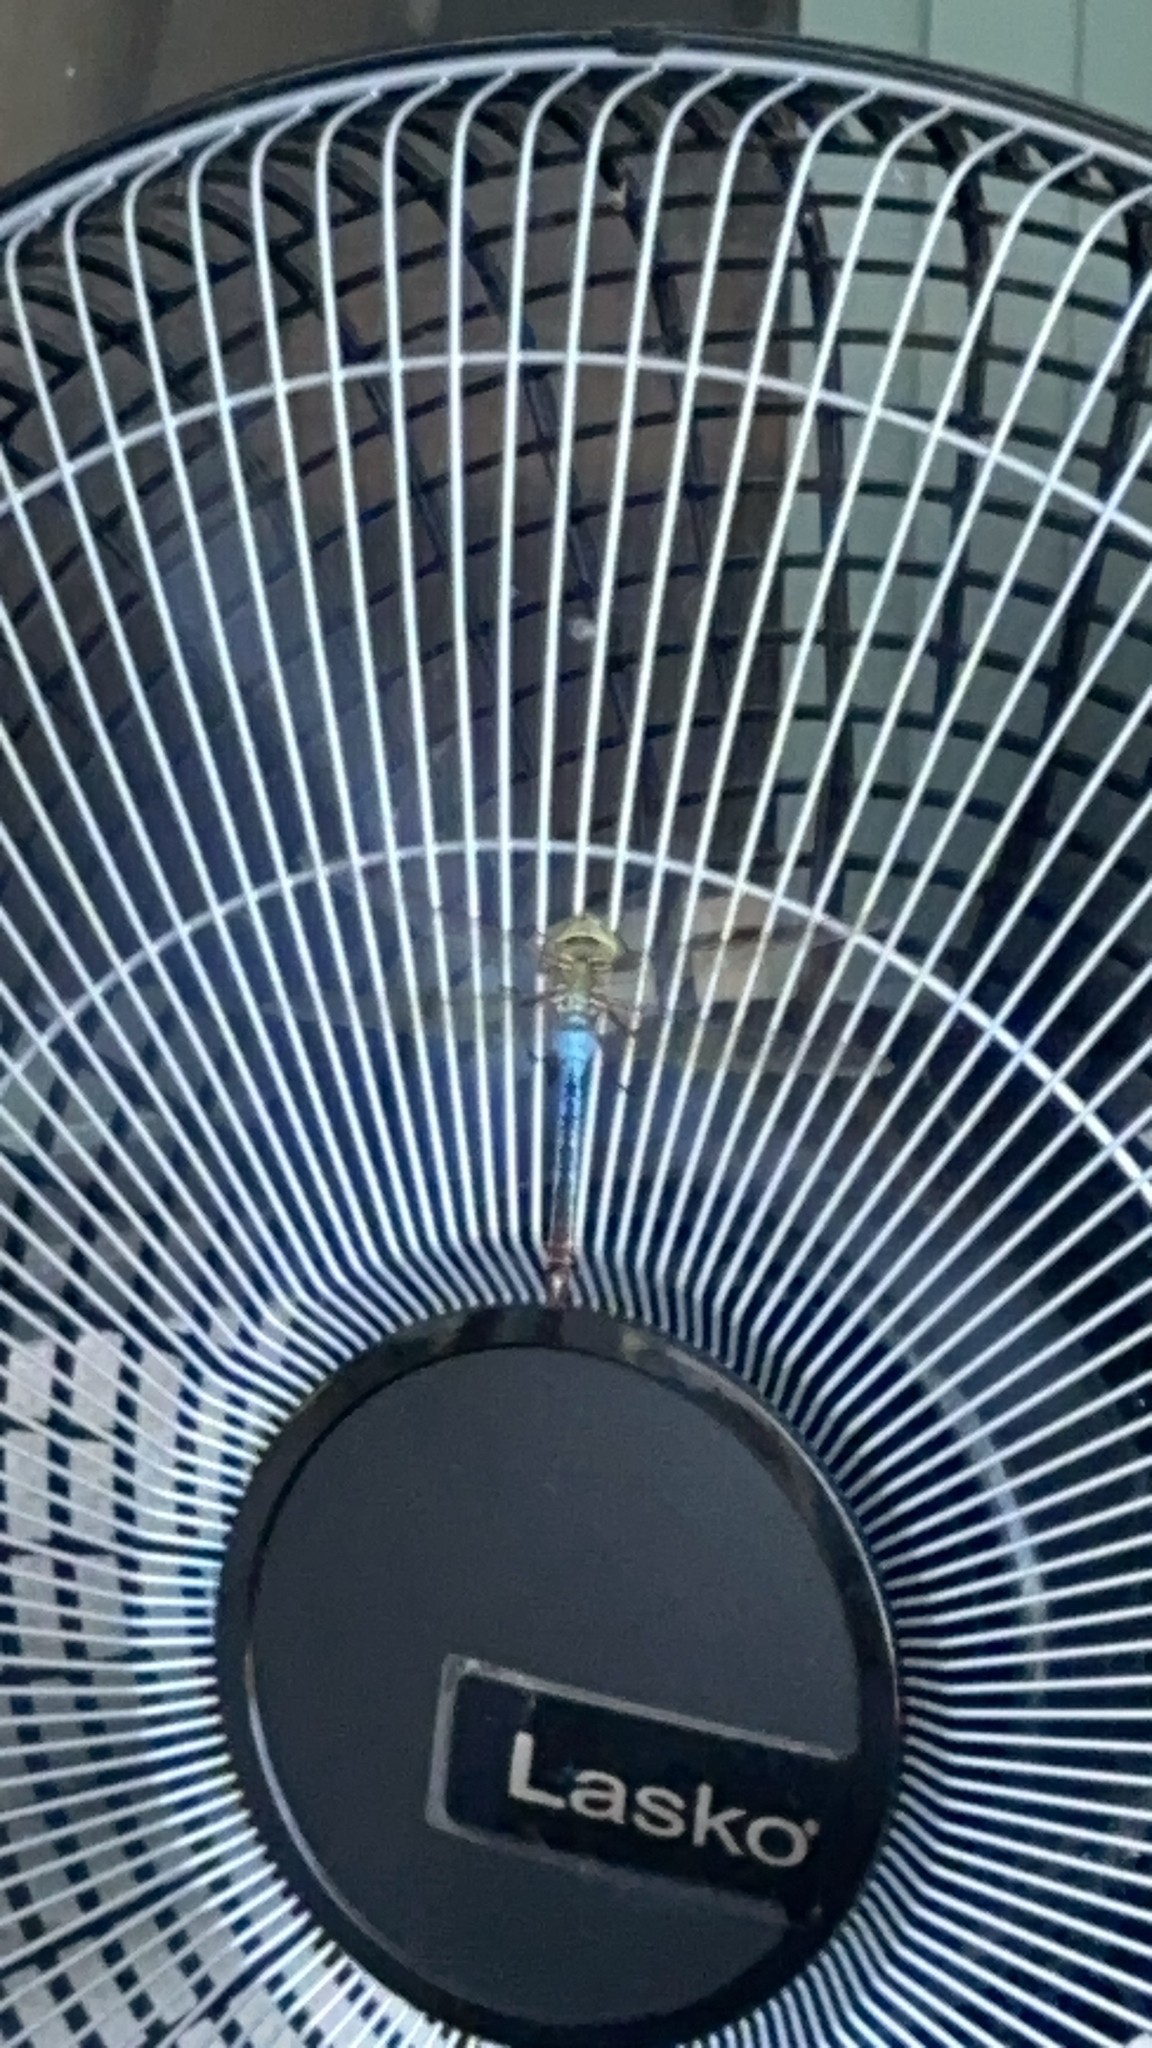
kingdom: Animalia
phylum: Arthropoda
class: Insecta
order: Odonata
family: Aeshnidae
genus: Anax
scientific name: Anax junius
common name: Common green darner
